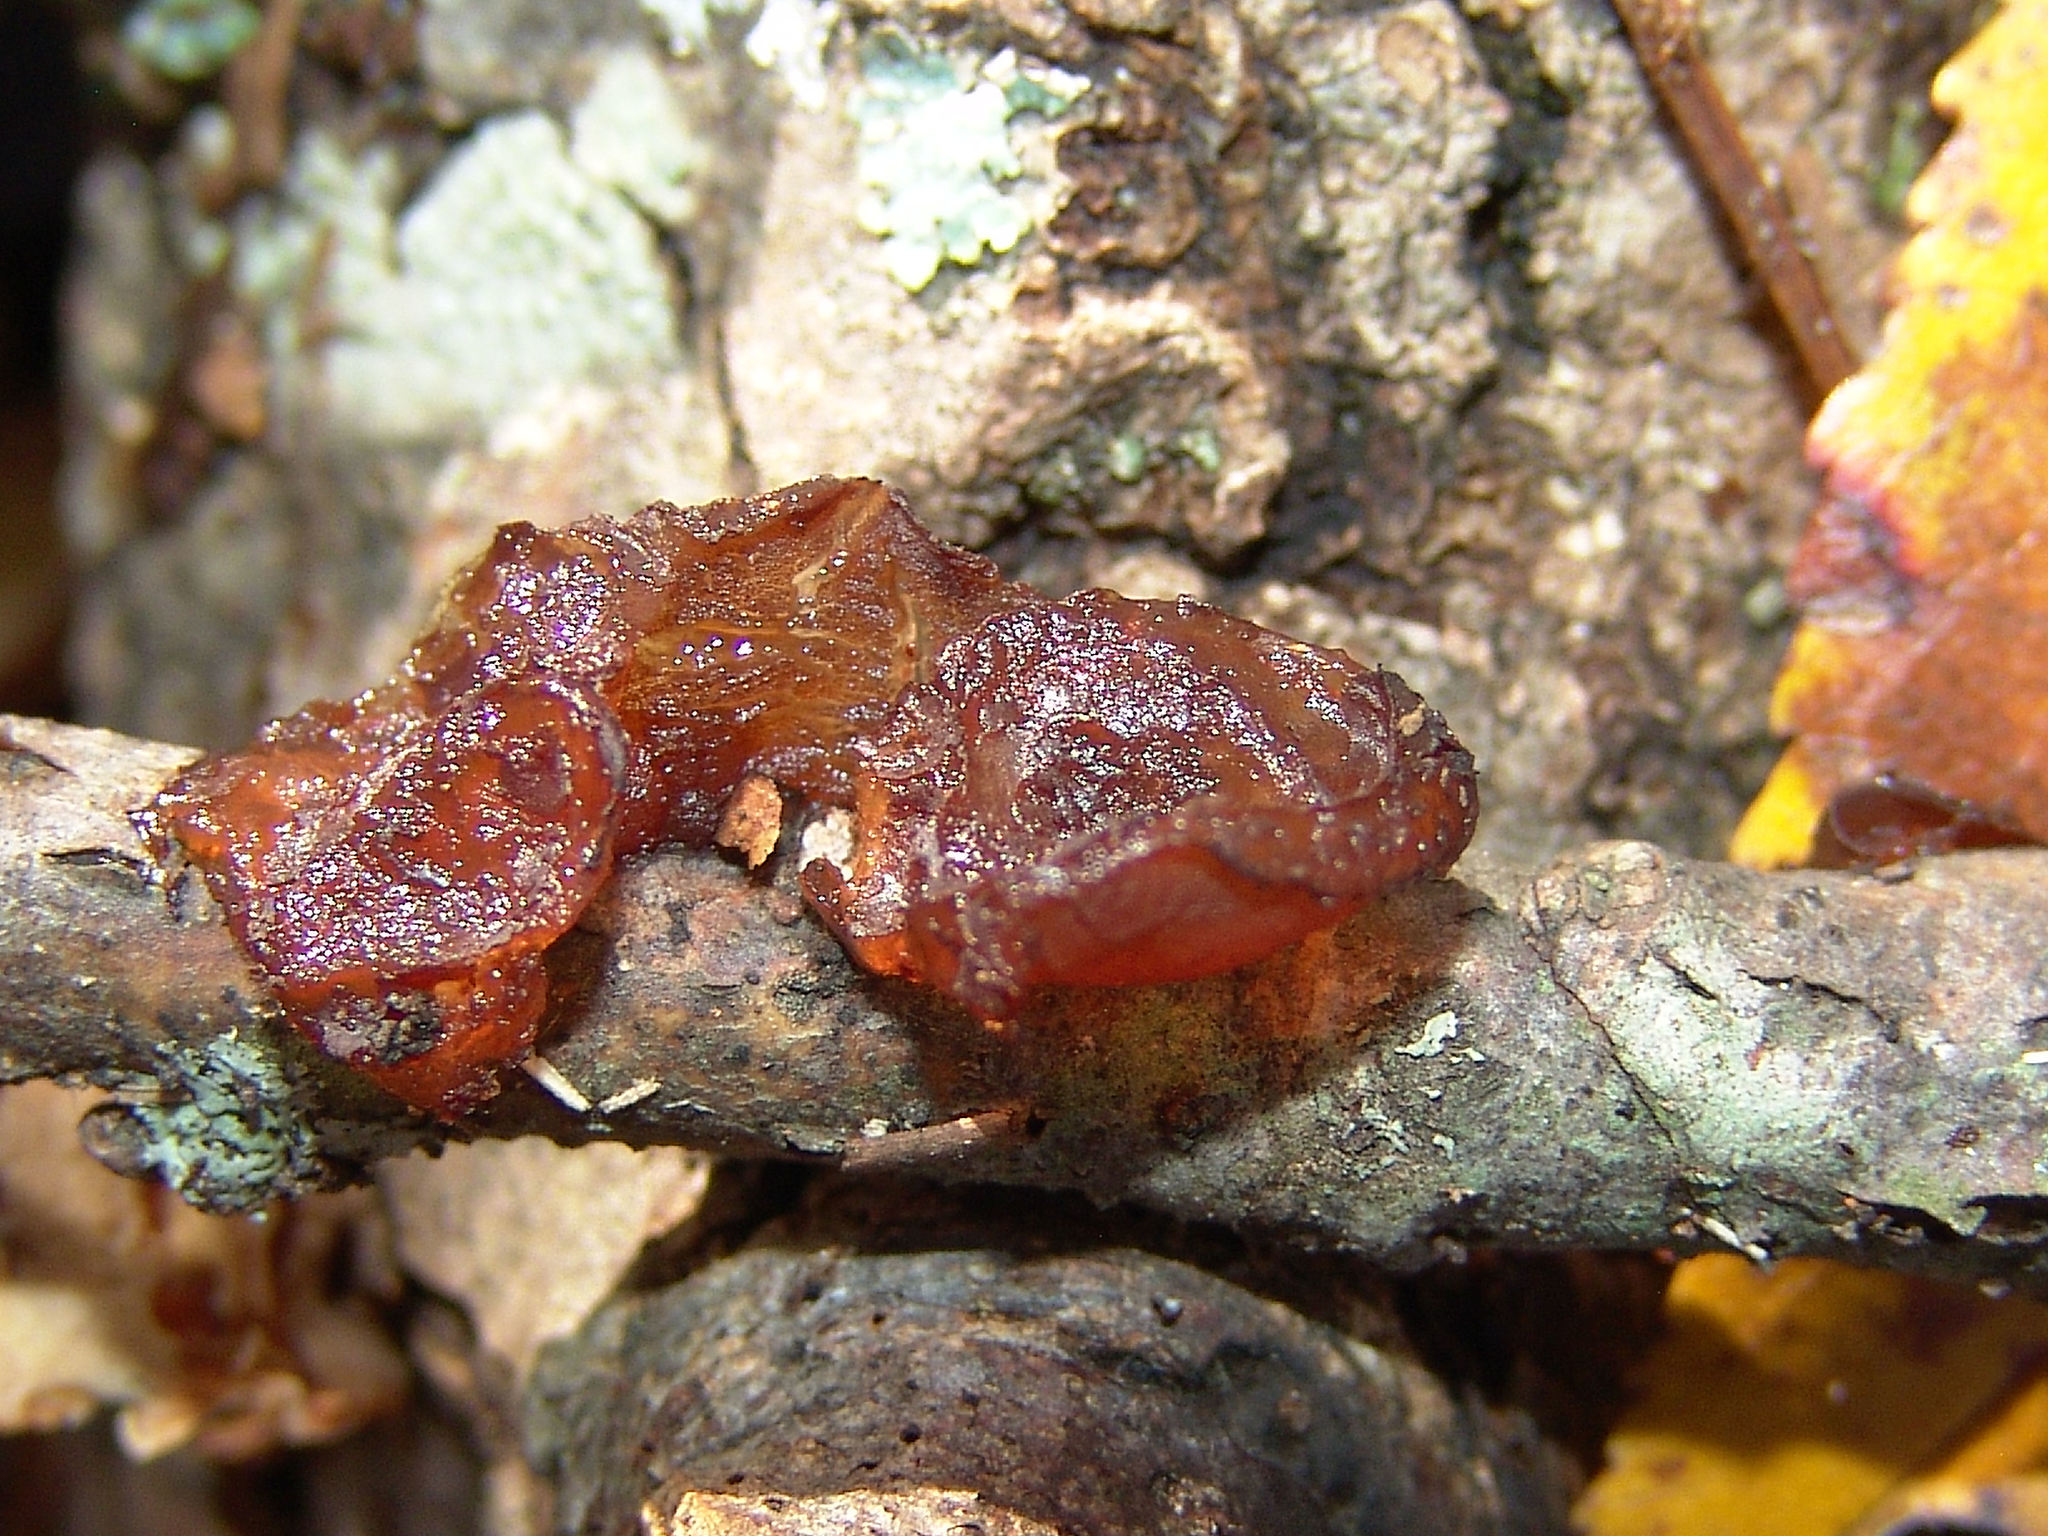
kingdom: Fungi
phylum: Basidiomycota
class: Agaricomycetes
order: Auriculariales
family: Auriculariaceae
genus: Exidia
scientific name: Exidia
